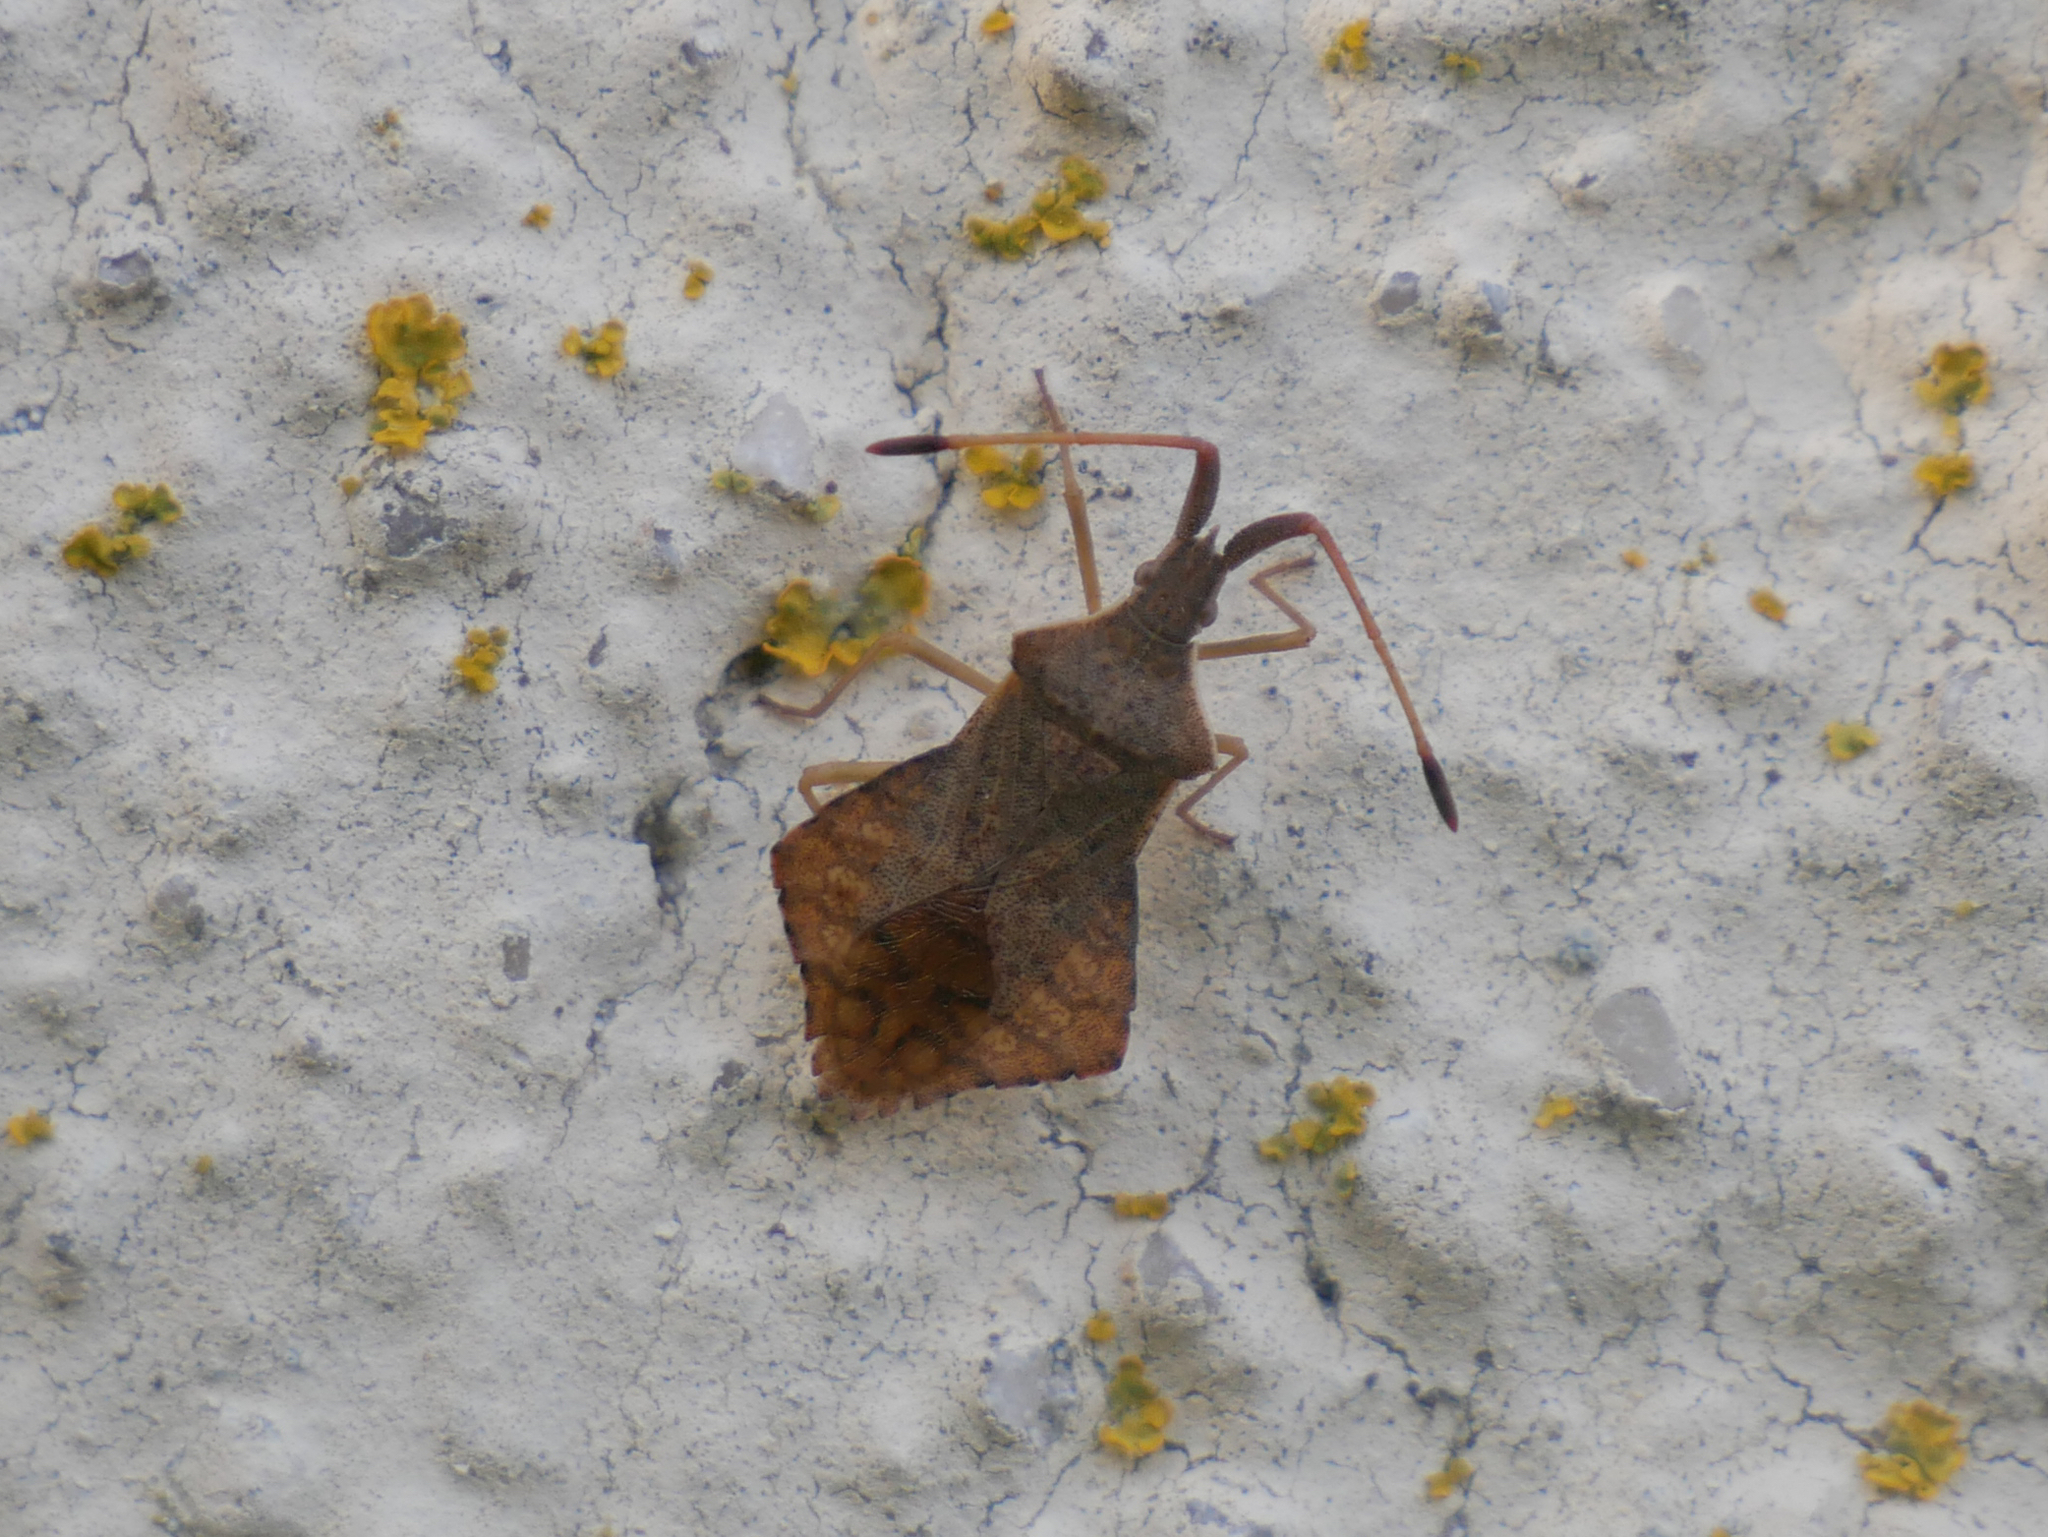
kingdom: Animalia
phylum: Arthropoda
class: Insecta
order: Hemiptera
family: Coreidae
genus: Syromastus
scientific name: Syromastus rhombeus
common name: Rhombic leatherbug
